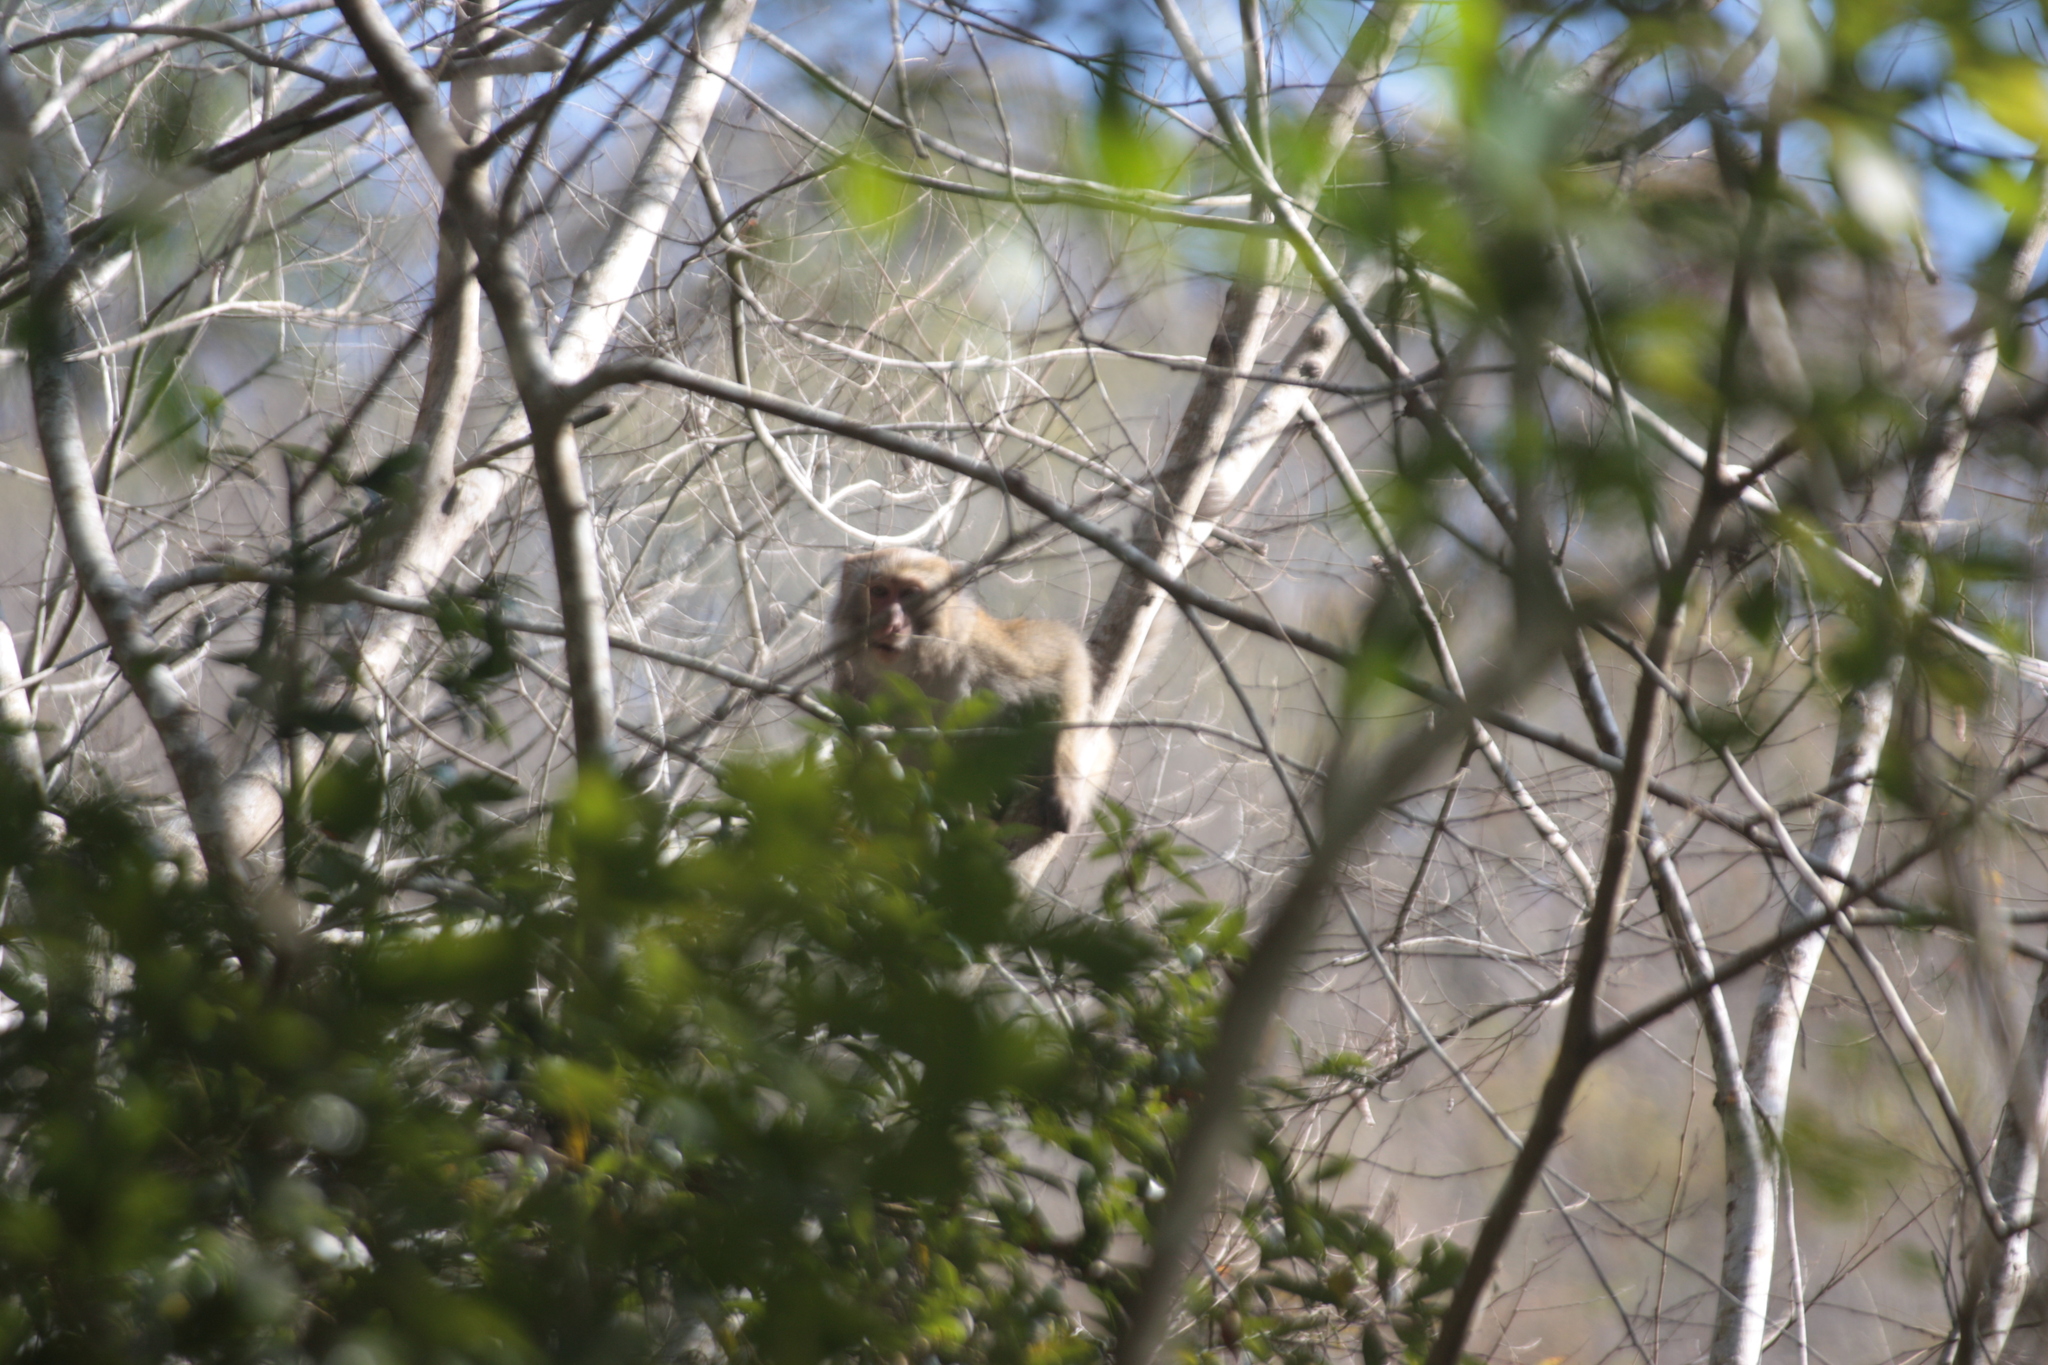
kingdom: Animalia
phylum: Chordata
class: Mammalia
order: Primates
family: Cercopithecidae
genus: Macaca
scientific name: Macaca cyclopis
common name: Formosan rock macaque
